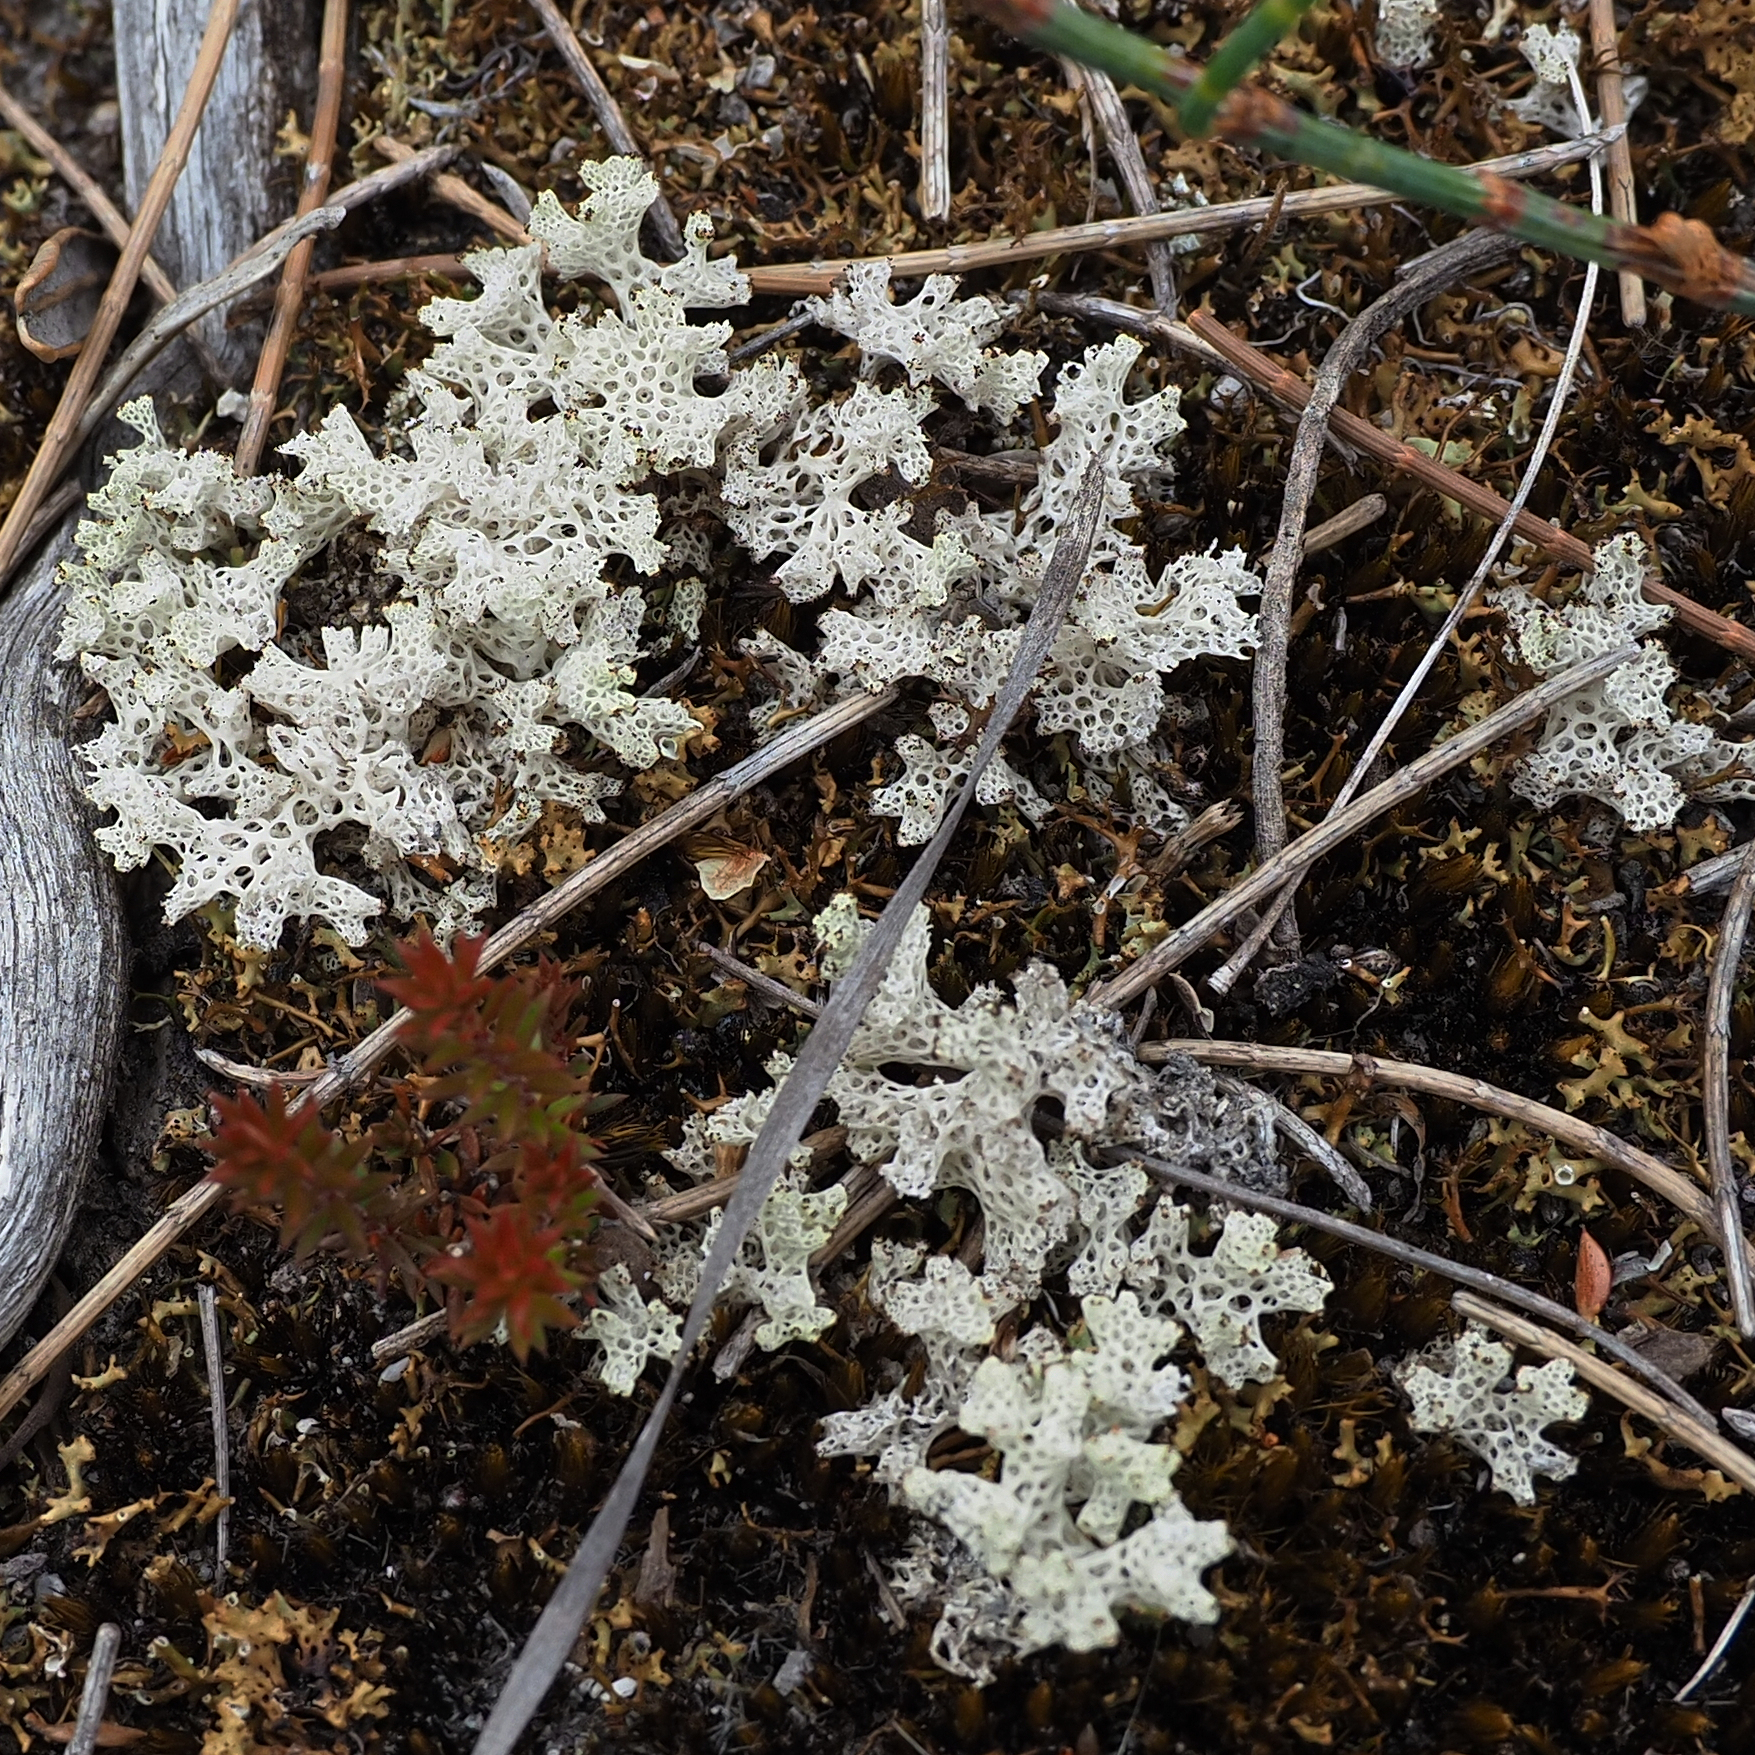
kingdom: Fungi
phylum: Ascomycota
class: Lecanoromycetes
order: Lecanorales
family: Cladoniaceae
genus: Pulchrocladia
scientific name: Pulchrocladia retipora
